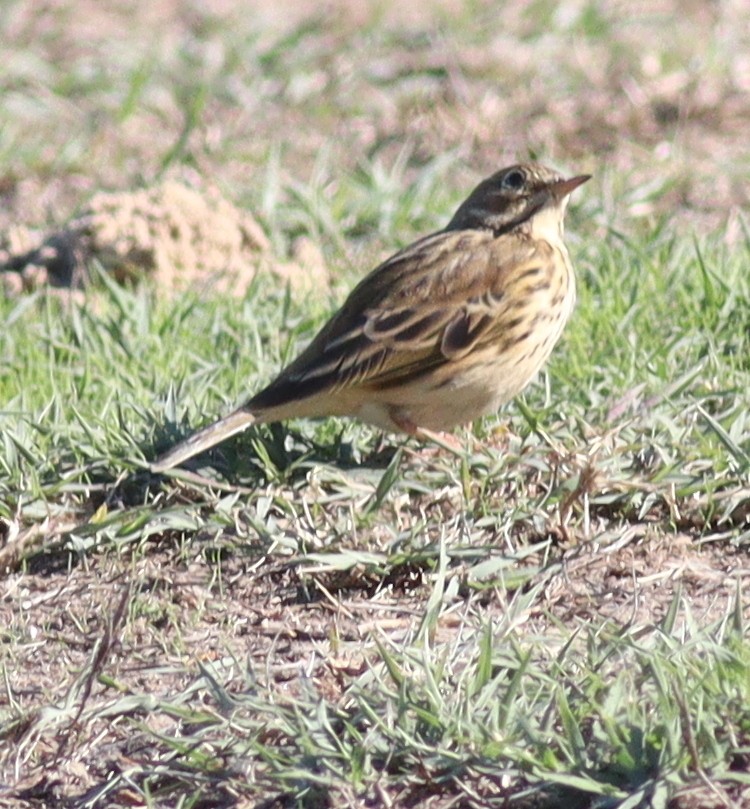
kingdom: Animalia
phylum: Chordata
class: Aves
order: Passeriformes
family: Motacillidae
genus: Anthus
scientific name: Anthus pratensis
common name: Meadow pipit
